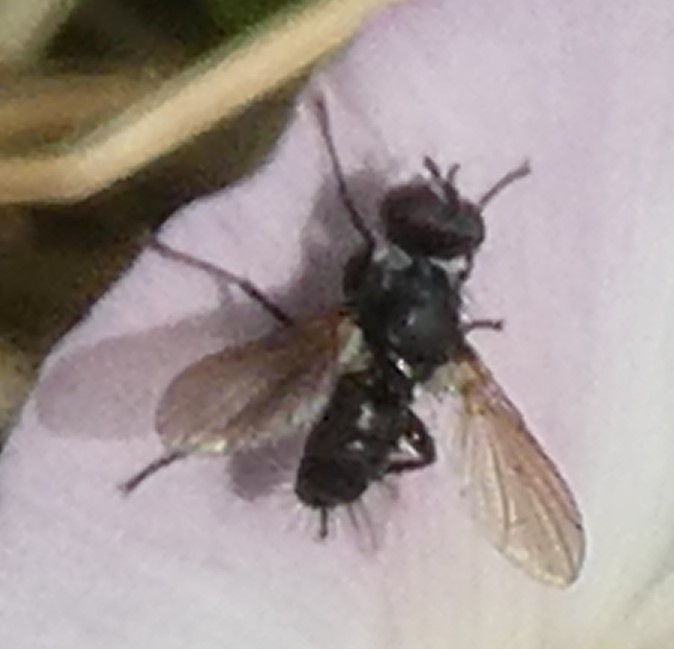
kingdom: Animalia
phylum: Arthropoda
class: Insecta
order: Diptera
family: Tachinidae
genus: Phania
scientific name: Phania funesta
